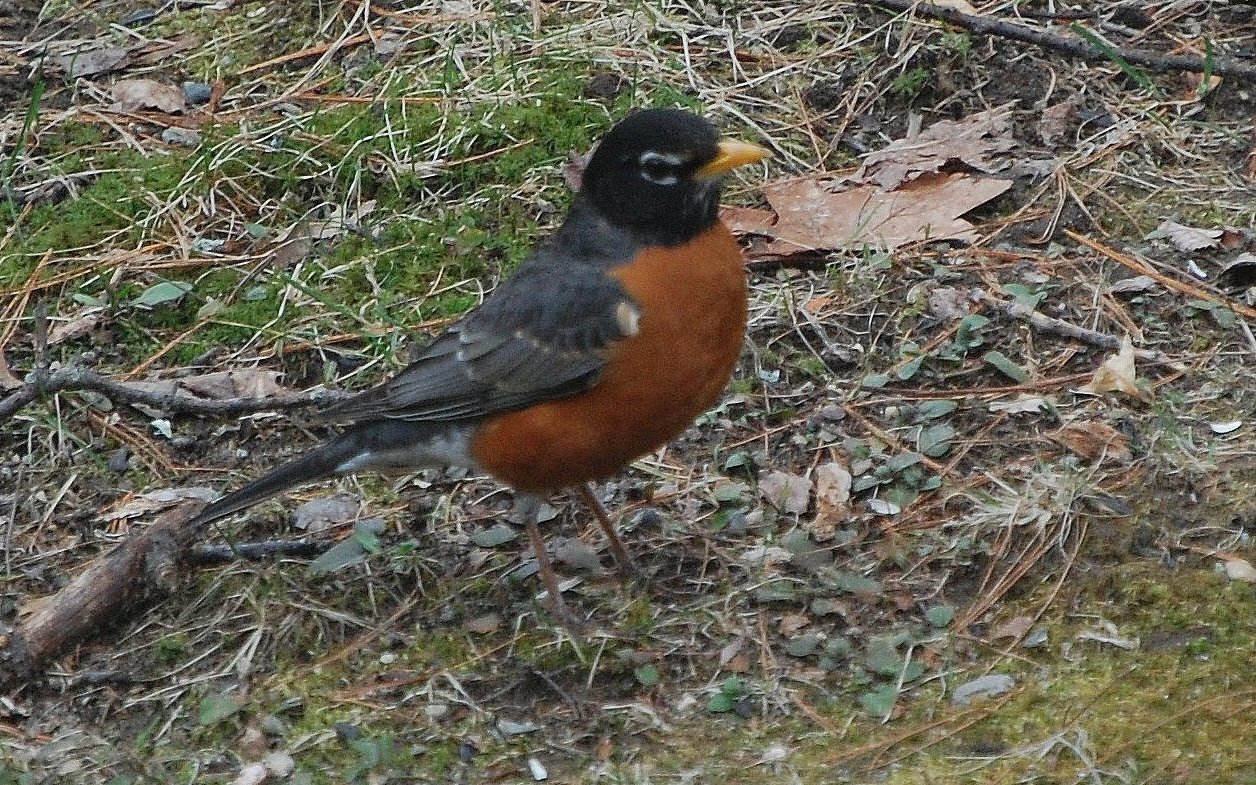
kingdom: Animalia
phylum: Chordata
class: Aves
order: Passeriformes
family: Turdidae
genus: Turdus
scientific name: Turdus migratorius
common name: American robin
